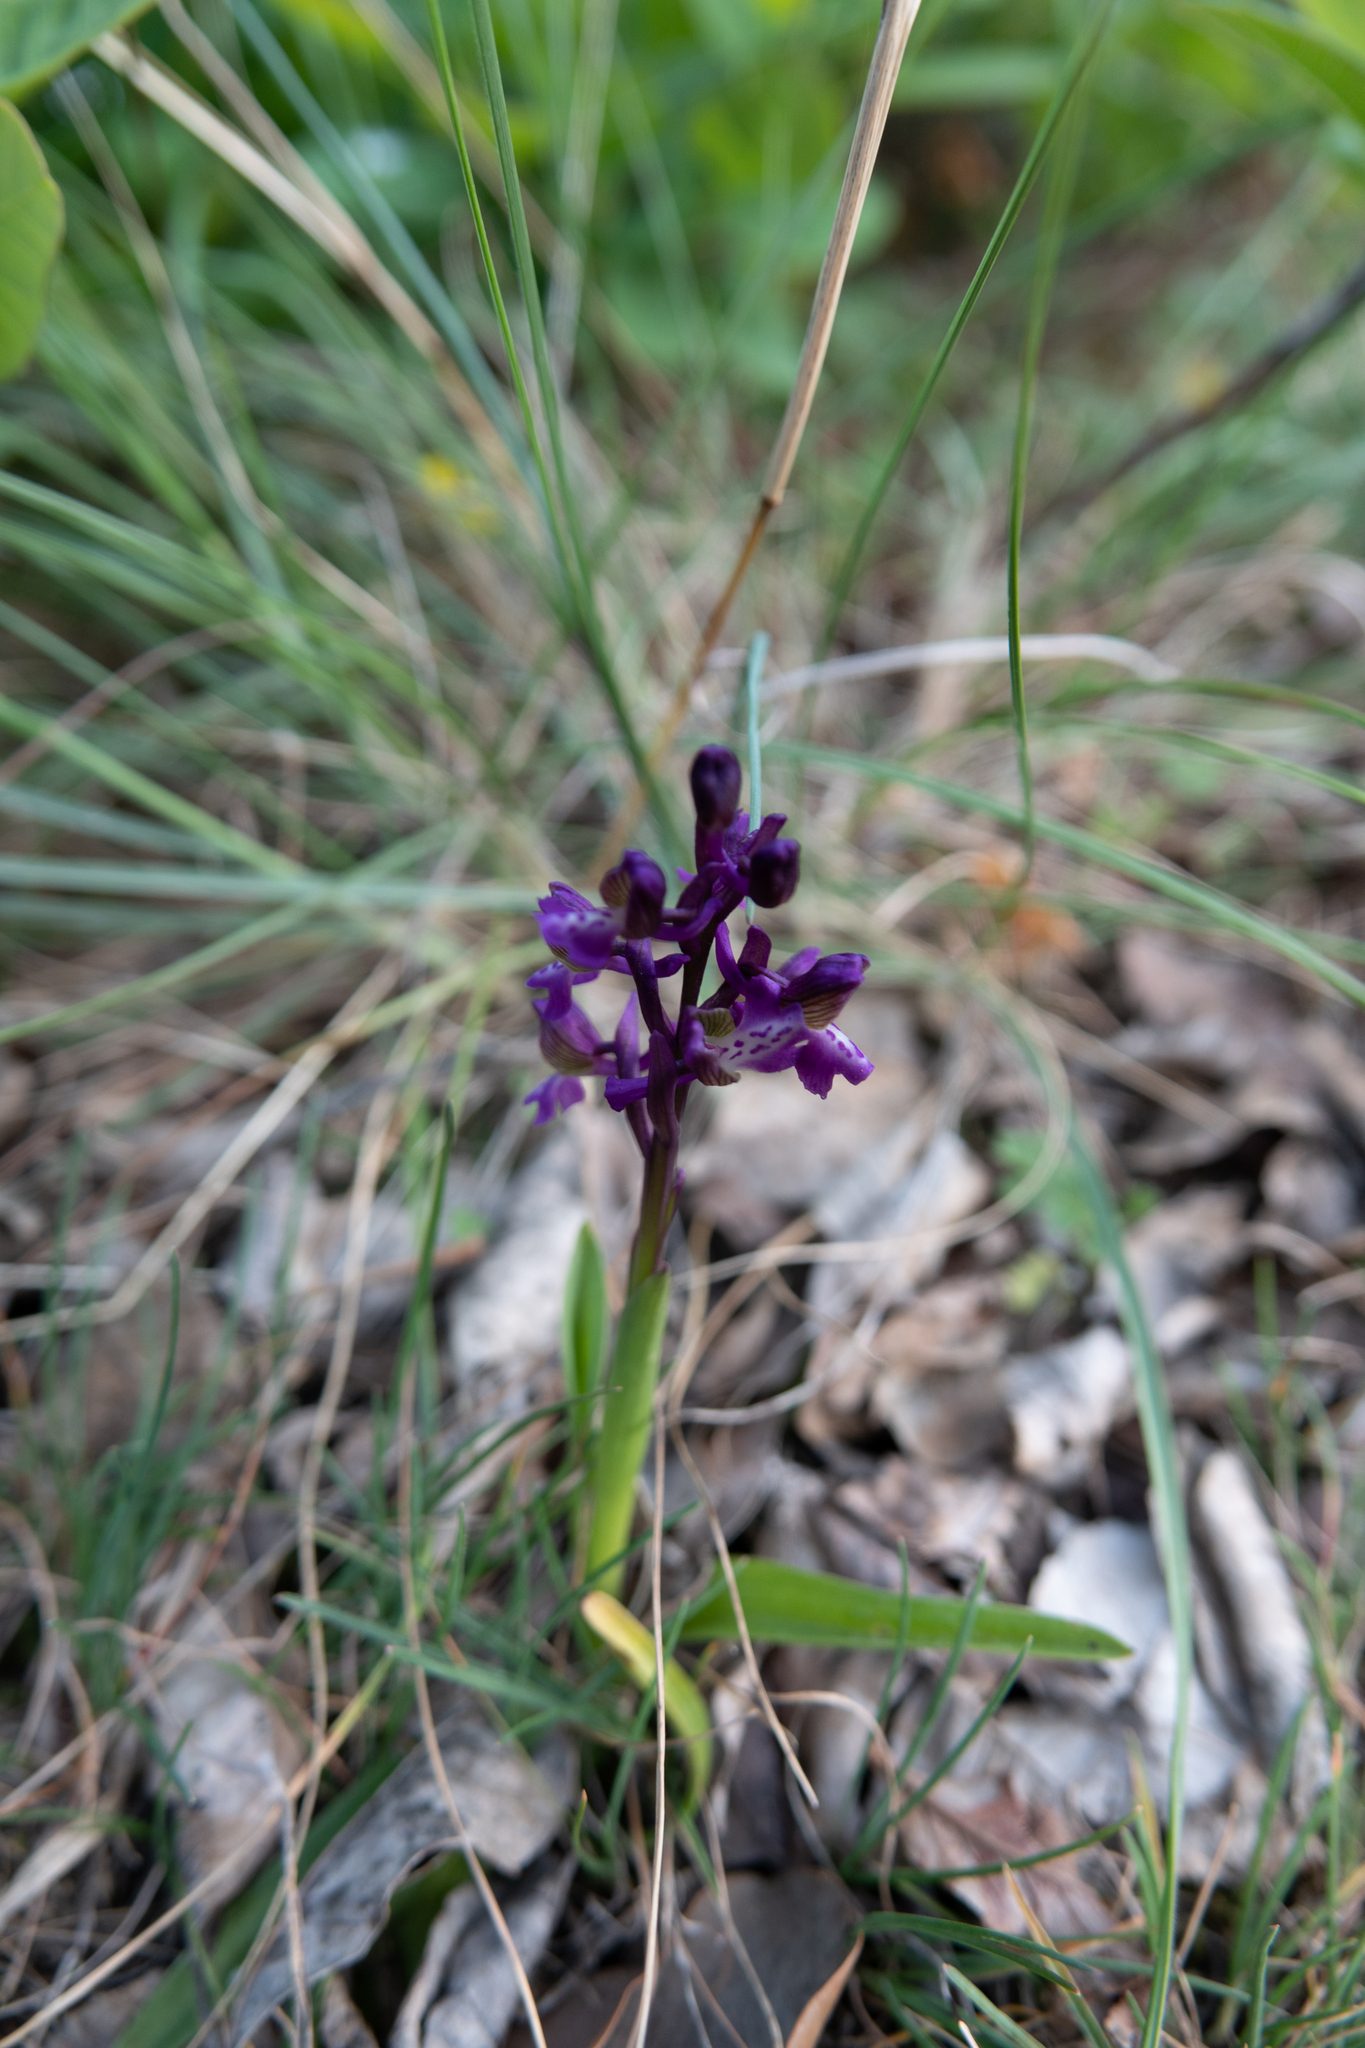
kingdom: Plantae
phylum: Tracheophyta
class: Liliopsida
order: Asparagales
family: Orchidaceae
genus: Anacamptis
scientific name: Anacamptis morio
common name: Green-winged orchid
